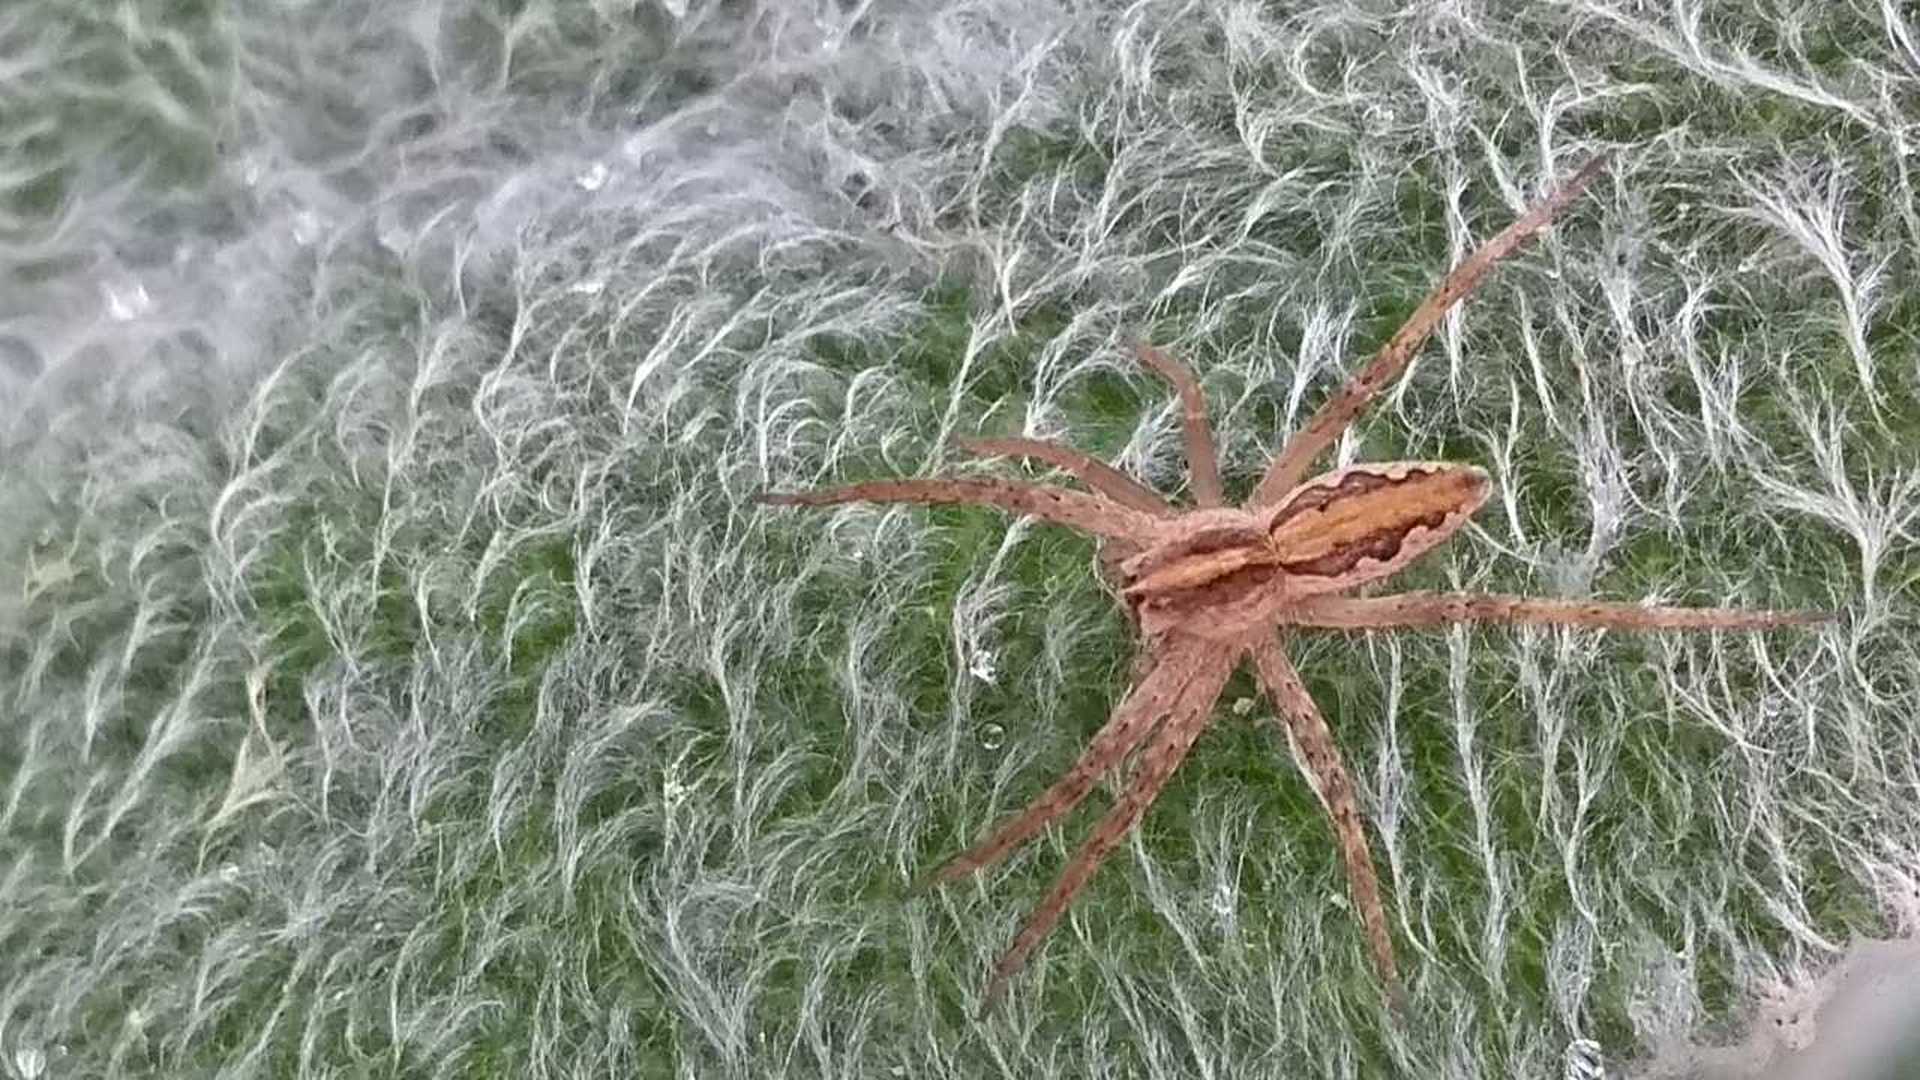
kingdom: Animalia
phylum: Arthropoda
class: Arachnida
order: Araneae
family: Pisauridae
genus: Pisaura
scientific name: Pisaura mirabilis
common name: Tent spider
